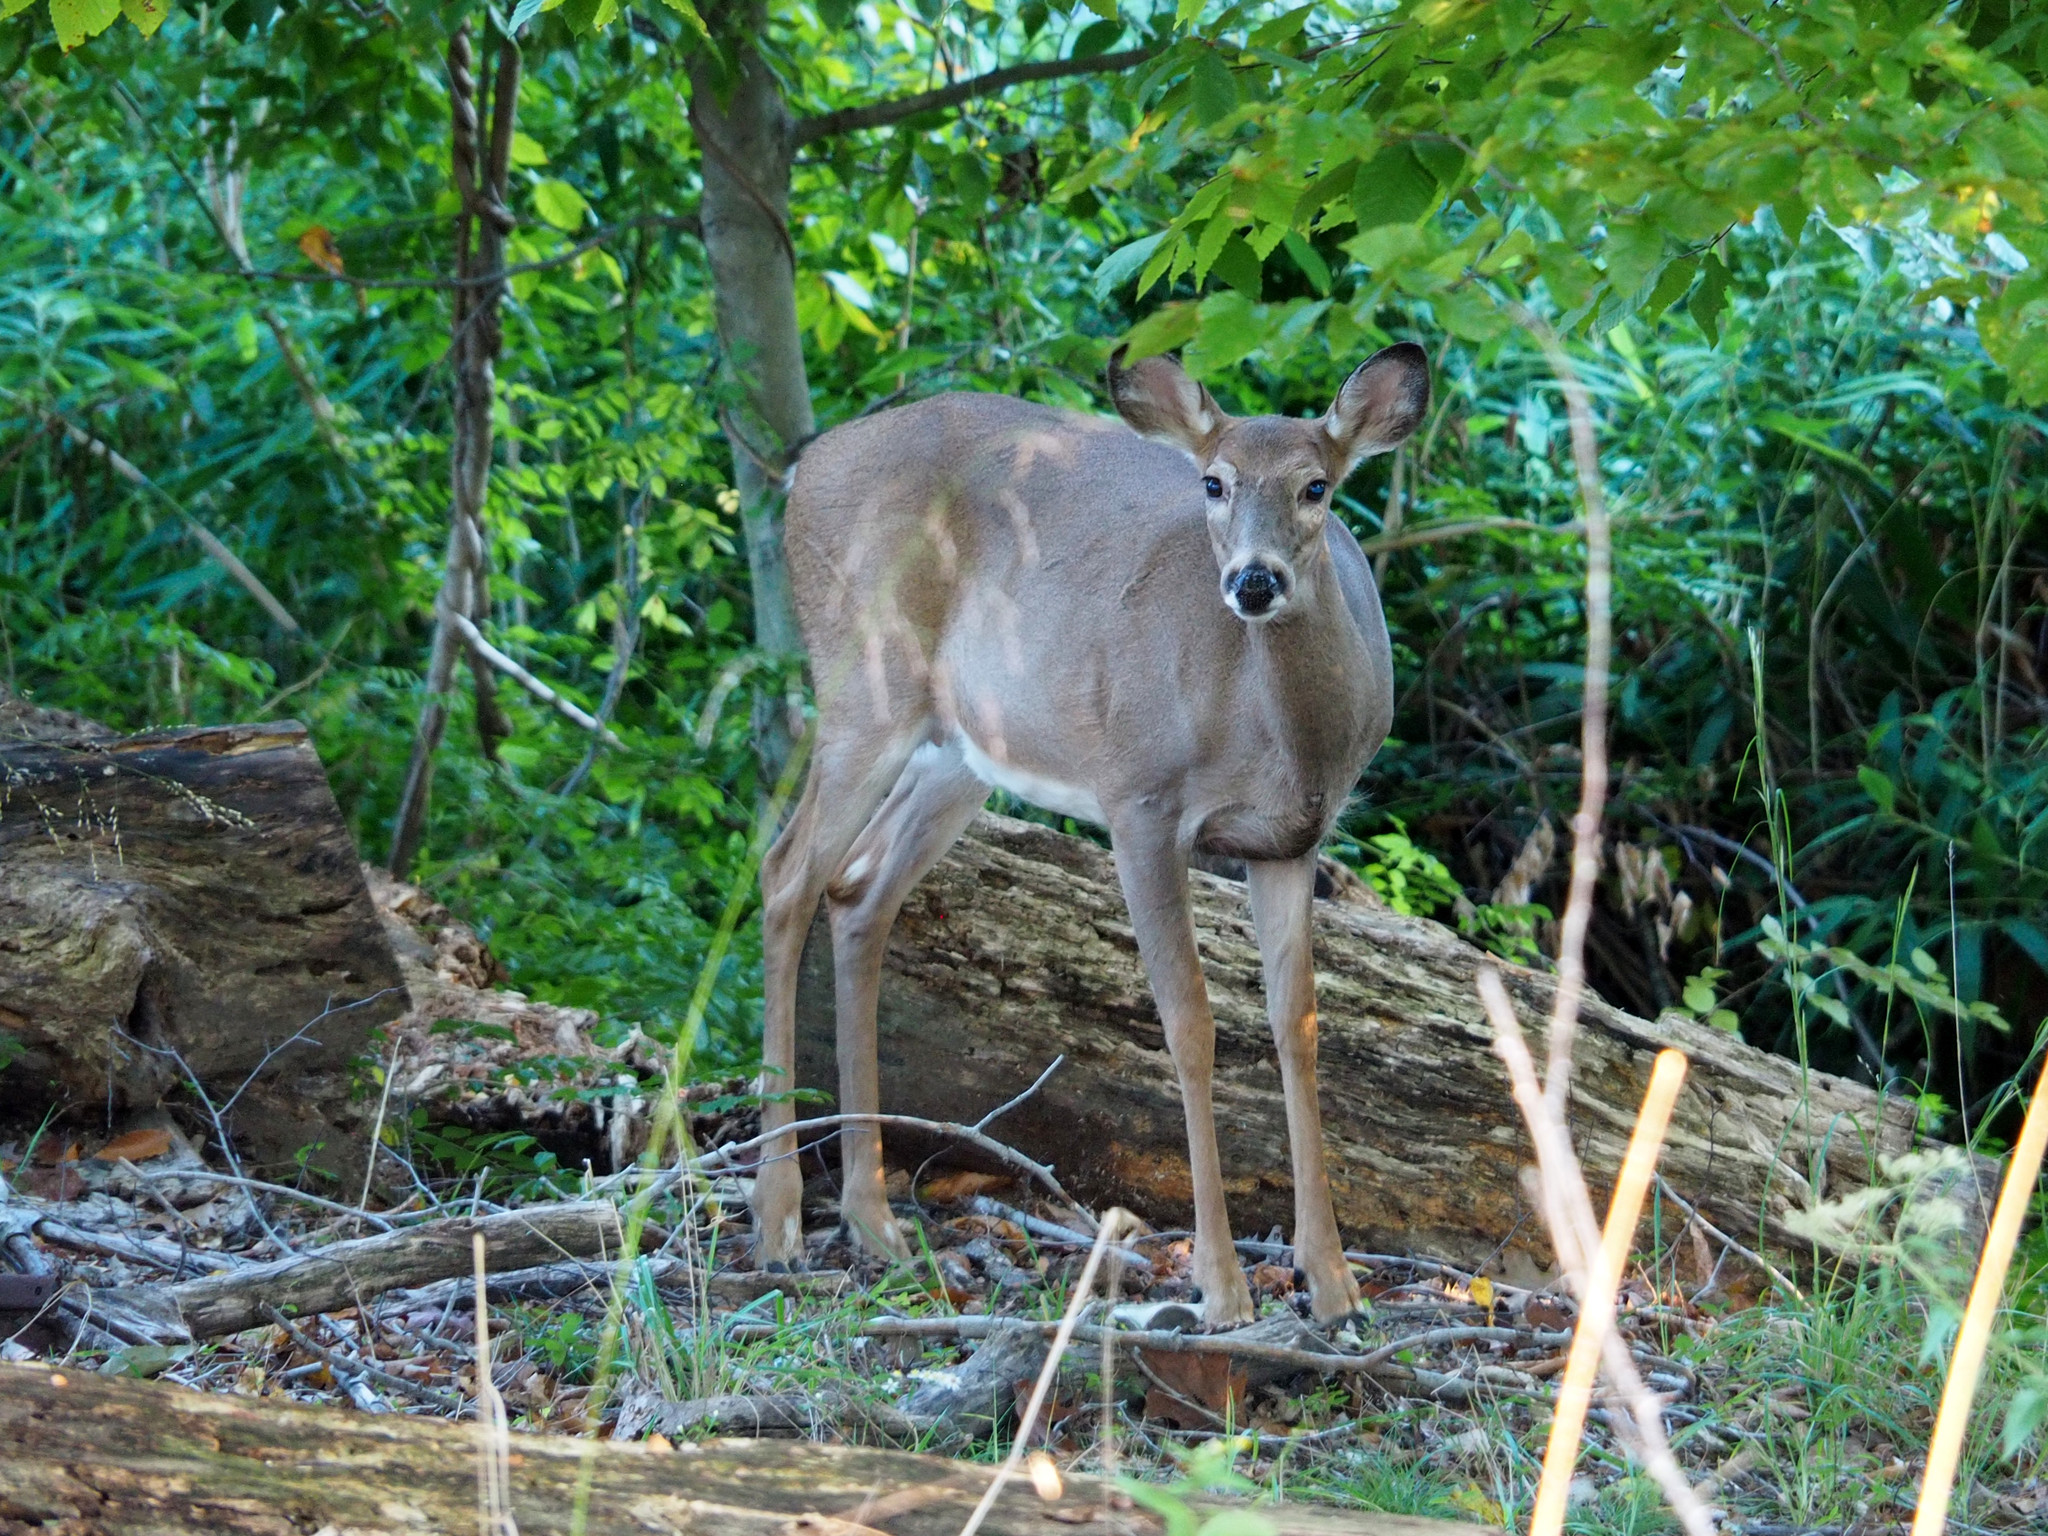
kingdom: Animalia
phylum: Chordata
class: Mammalia
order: Artiodactyla
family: Cervidae
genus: Odocoileus
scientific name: Odocoileus virginianus
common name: White-tailed deer
